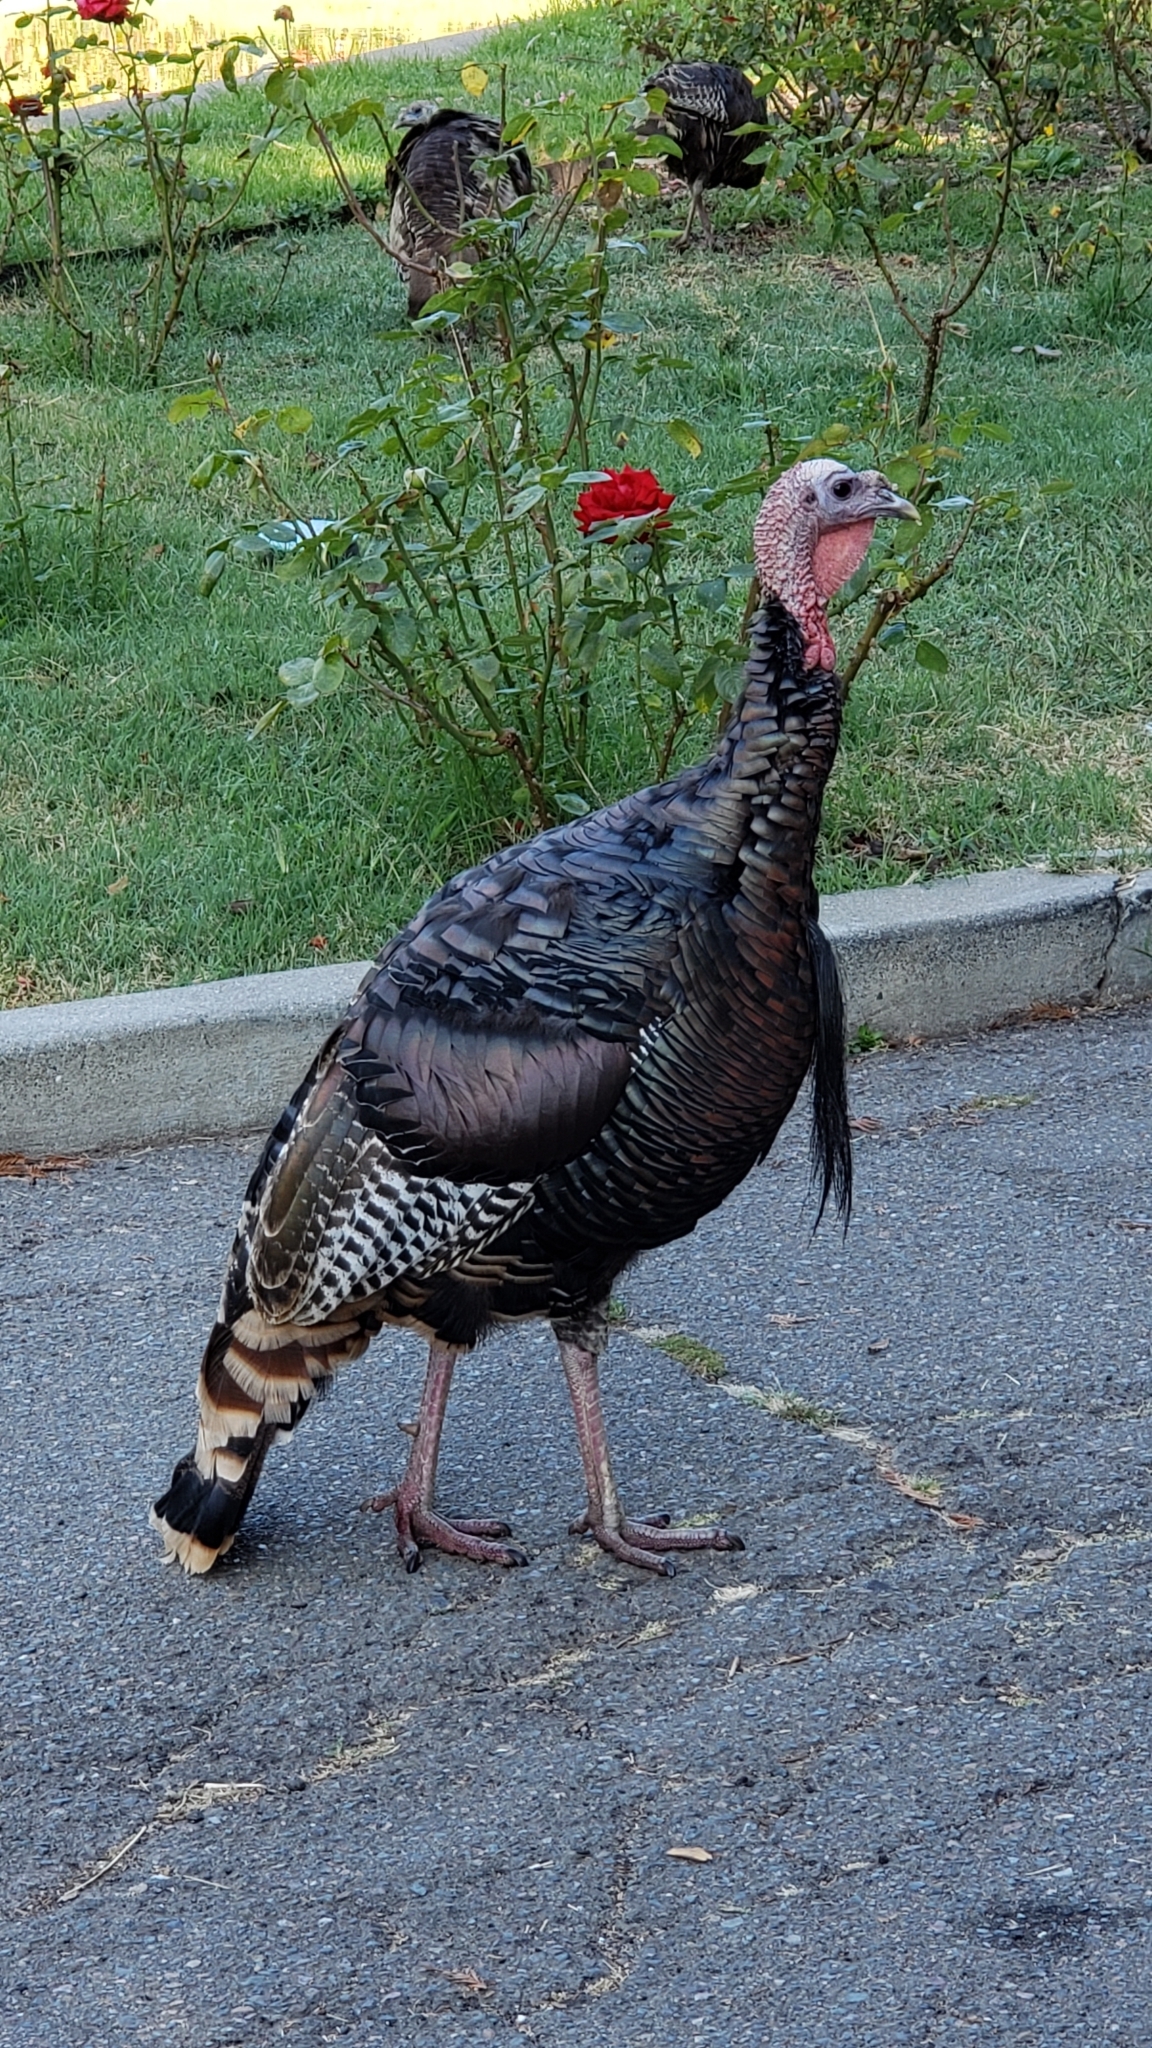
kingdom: Animalia
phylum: Chordata
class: Aves
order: Galliformes
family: Phasianidae
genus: Meleagris
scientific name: Meleagris gallopavo
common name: Wild turkey
